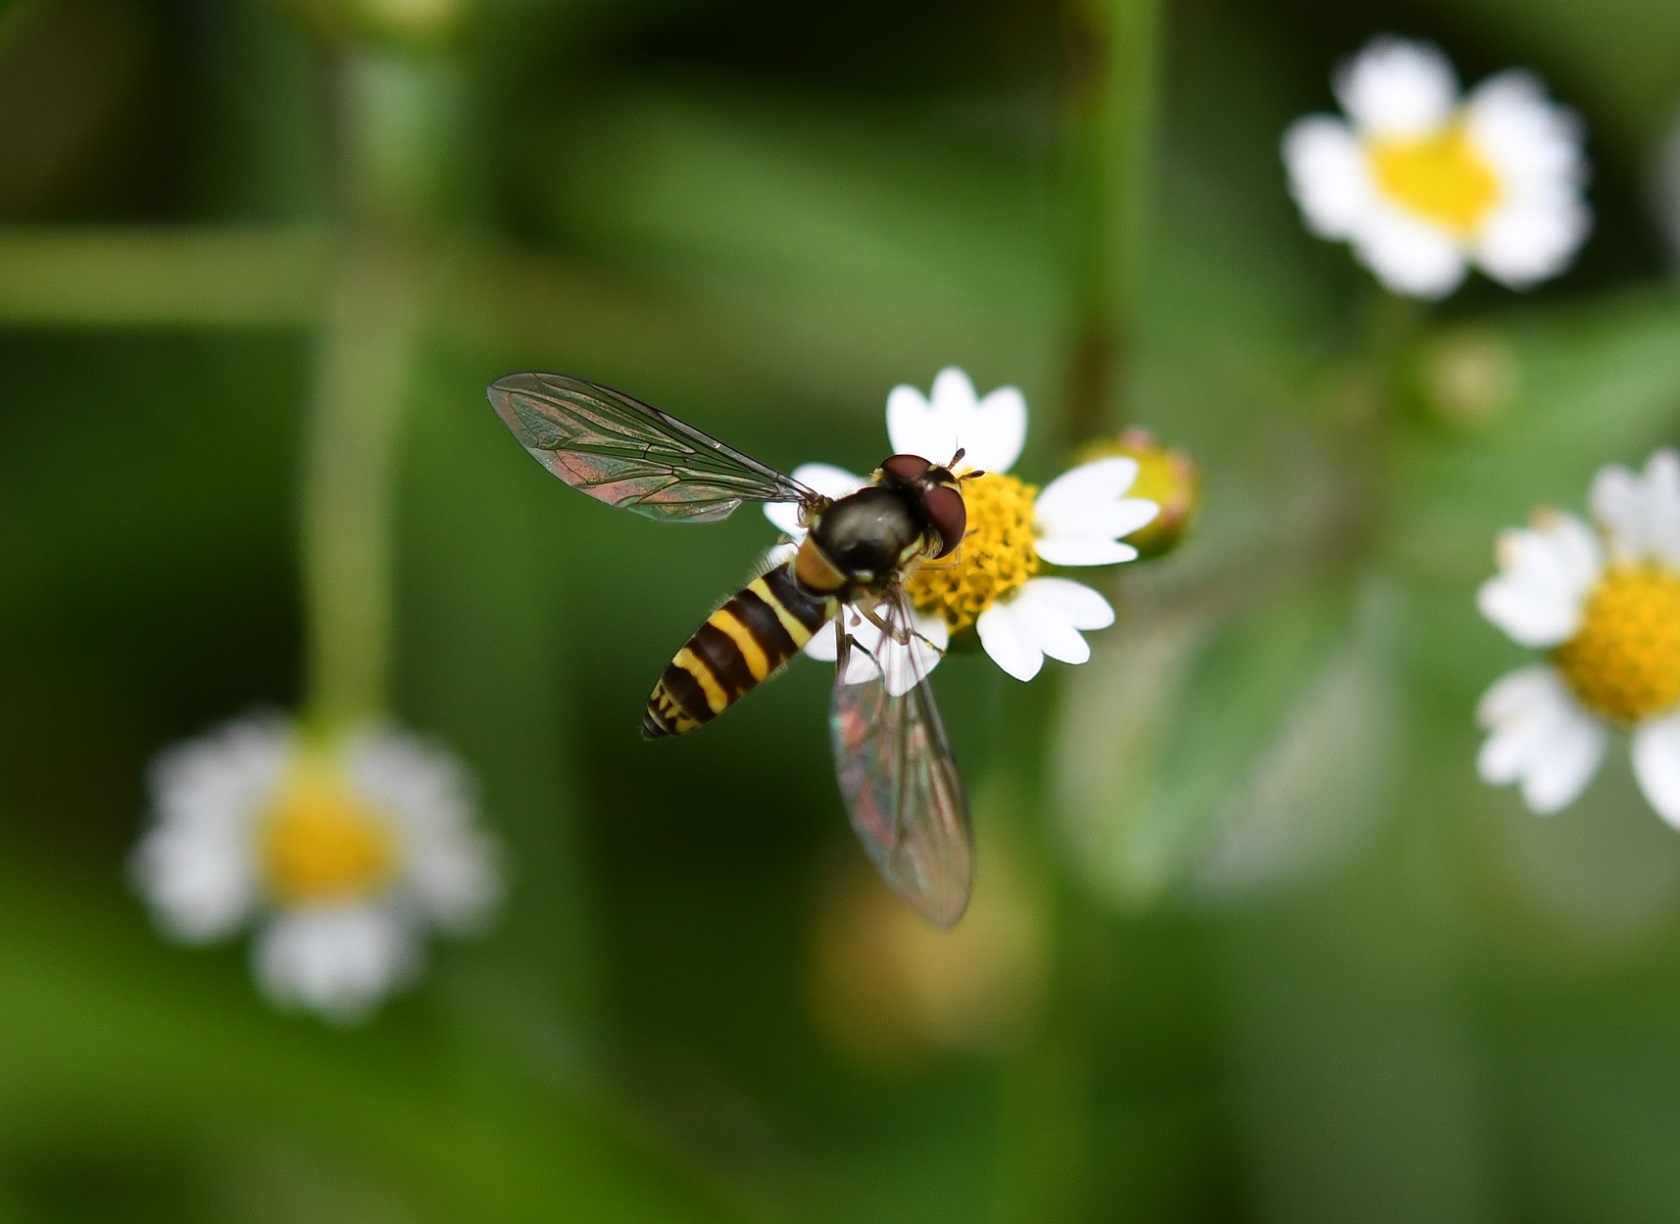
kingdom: Animalia
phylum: Arthropoda
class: Insecta
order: Diptera
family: Syrphidae
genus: Fazia
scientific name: Fazia micrura
